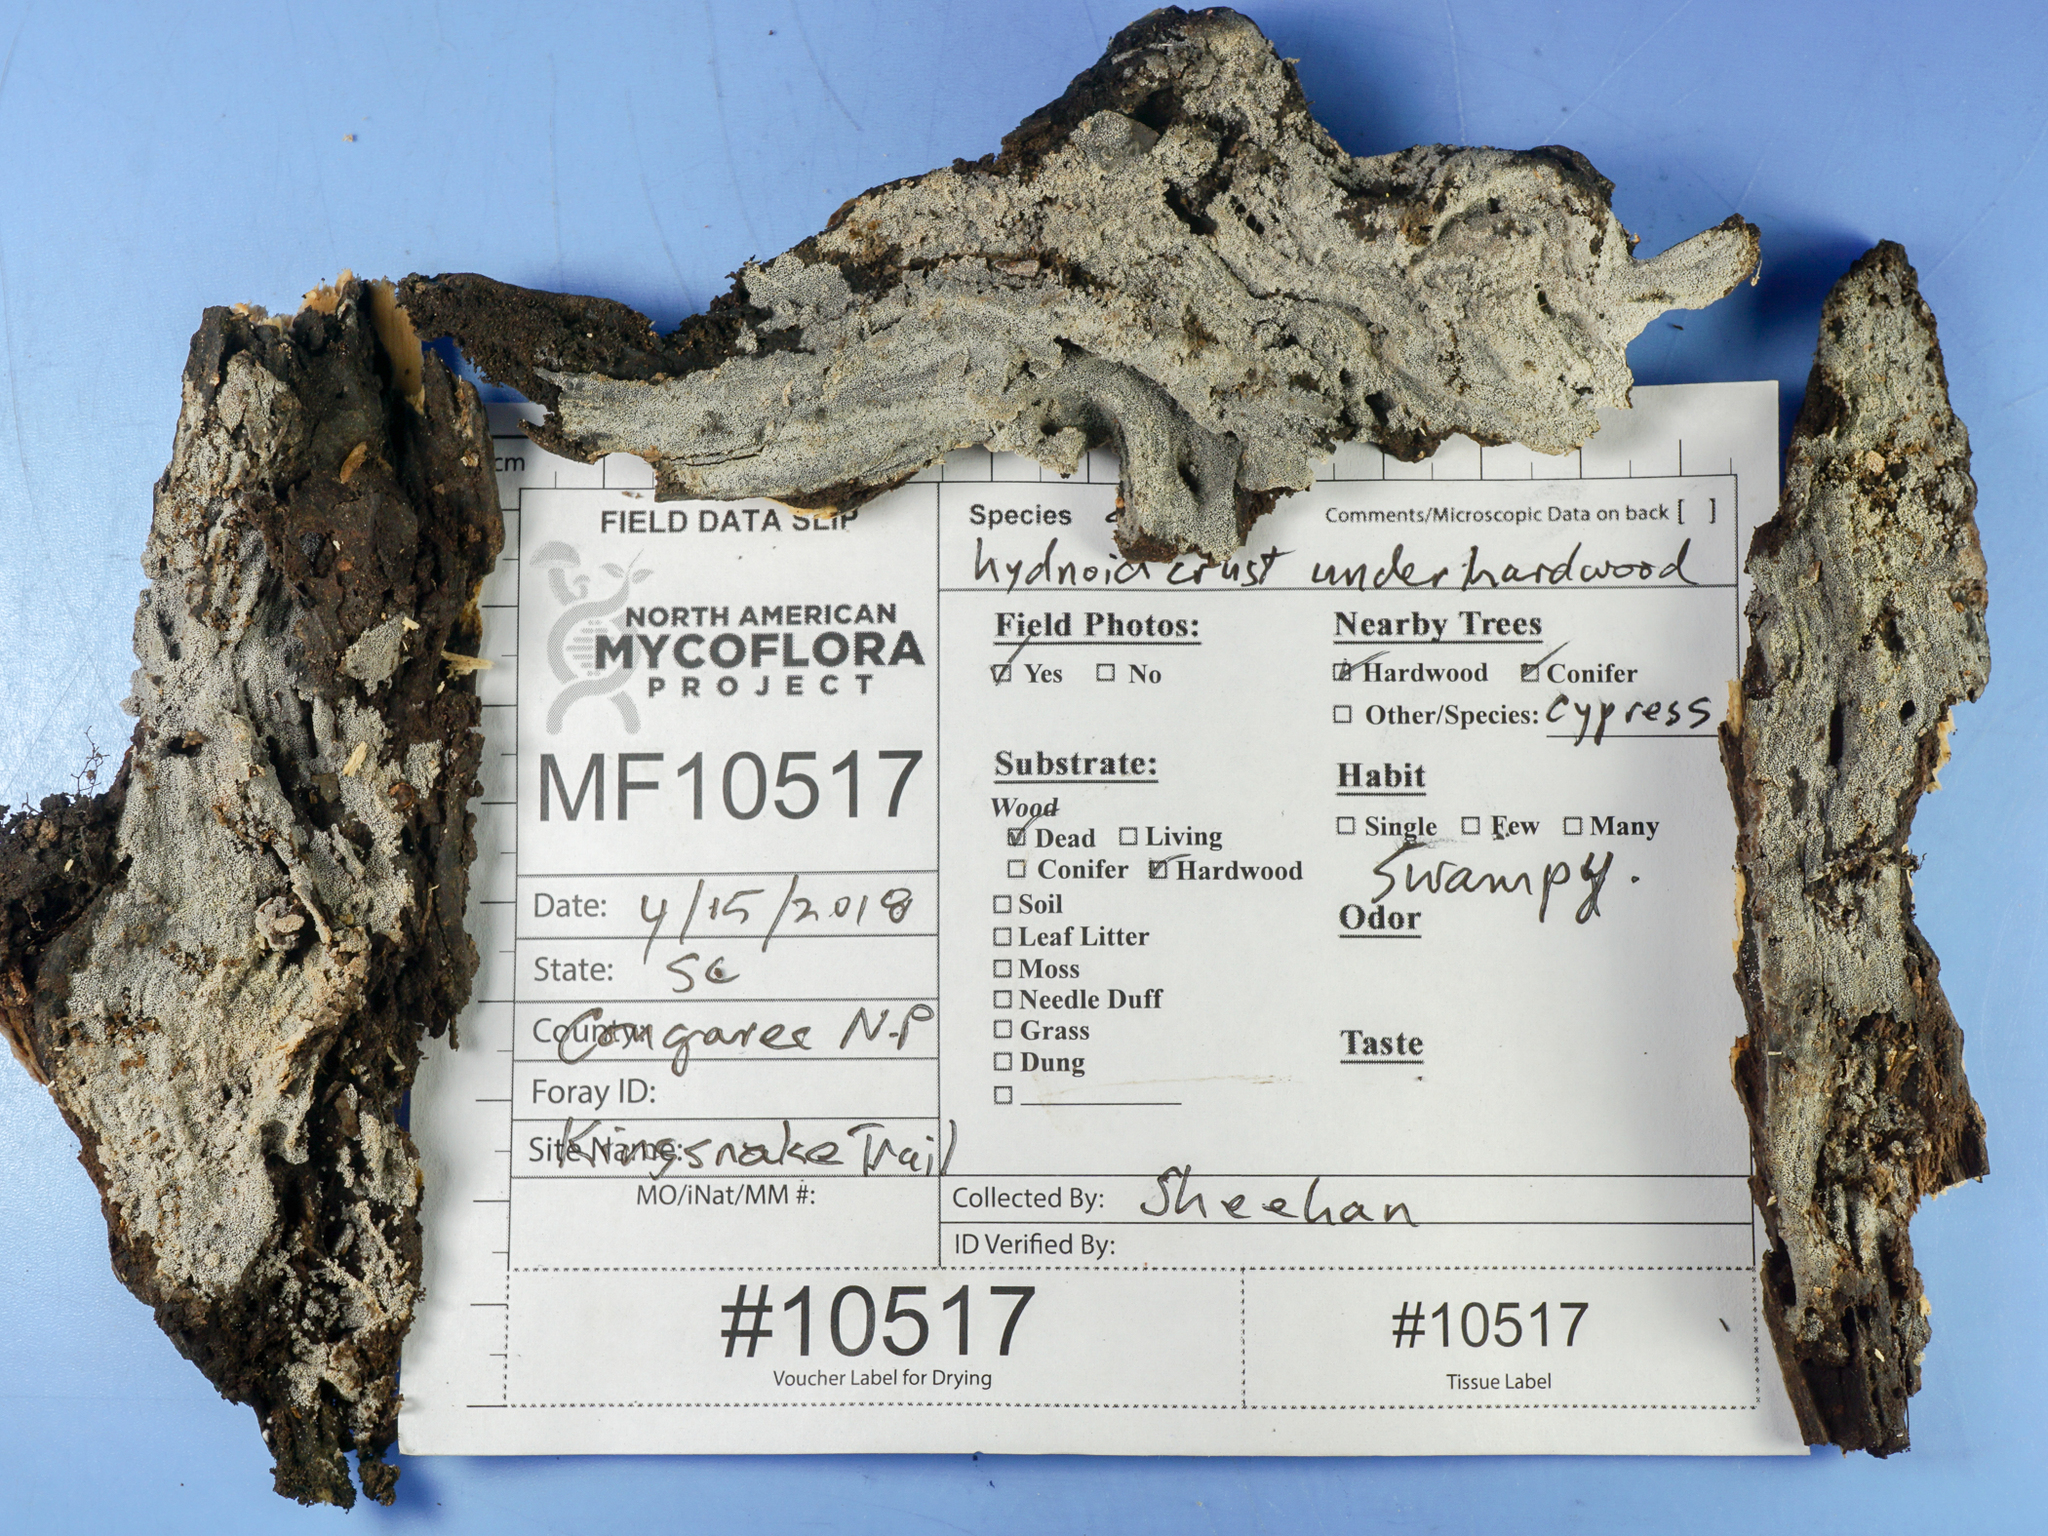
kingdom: Fungi
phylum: Basidiomycota
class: Agaricomycetes
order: Polyporales
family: Meruliaceae
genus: Scopuloides
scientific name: Scopuloides rimosa
